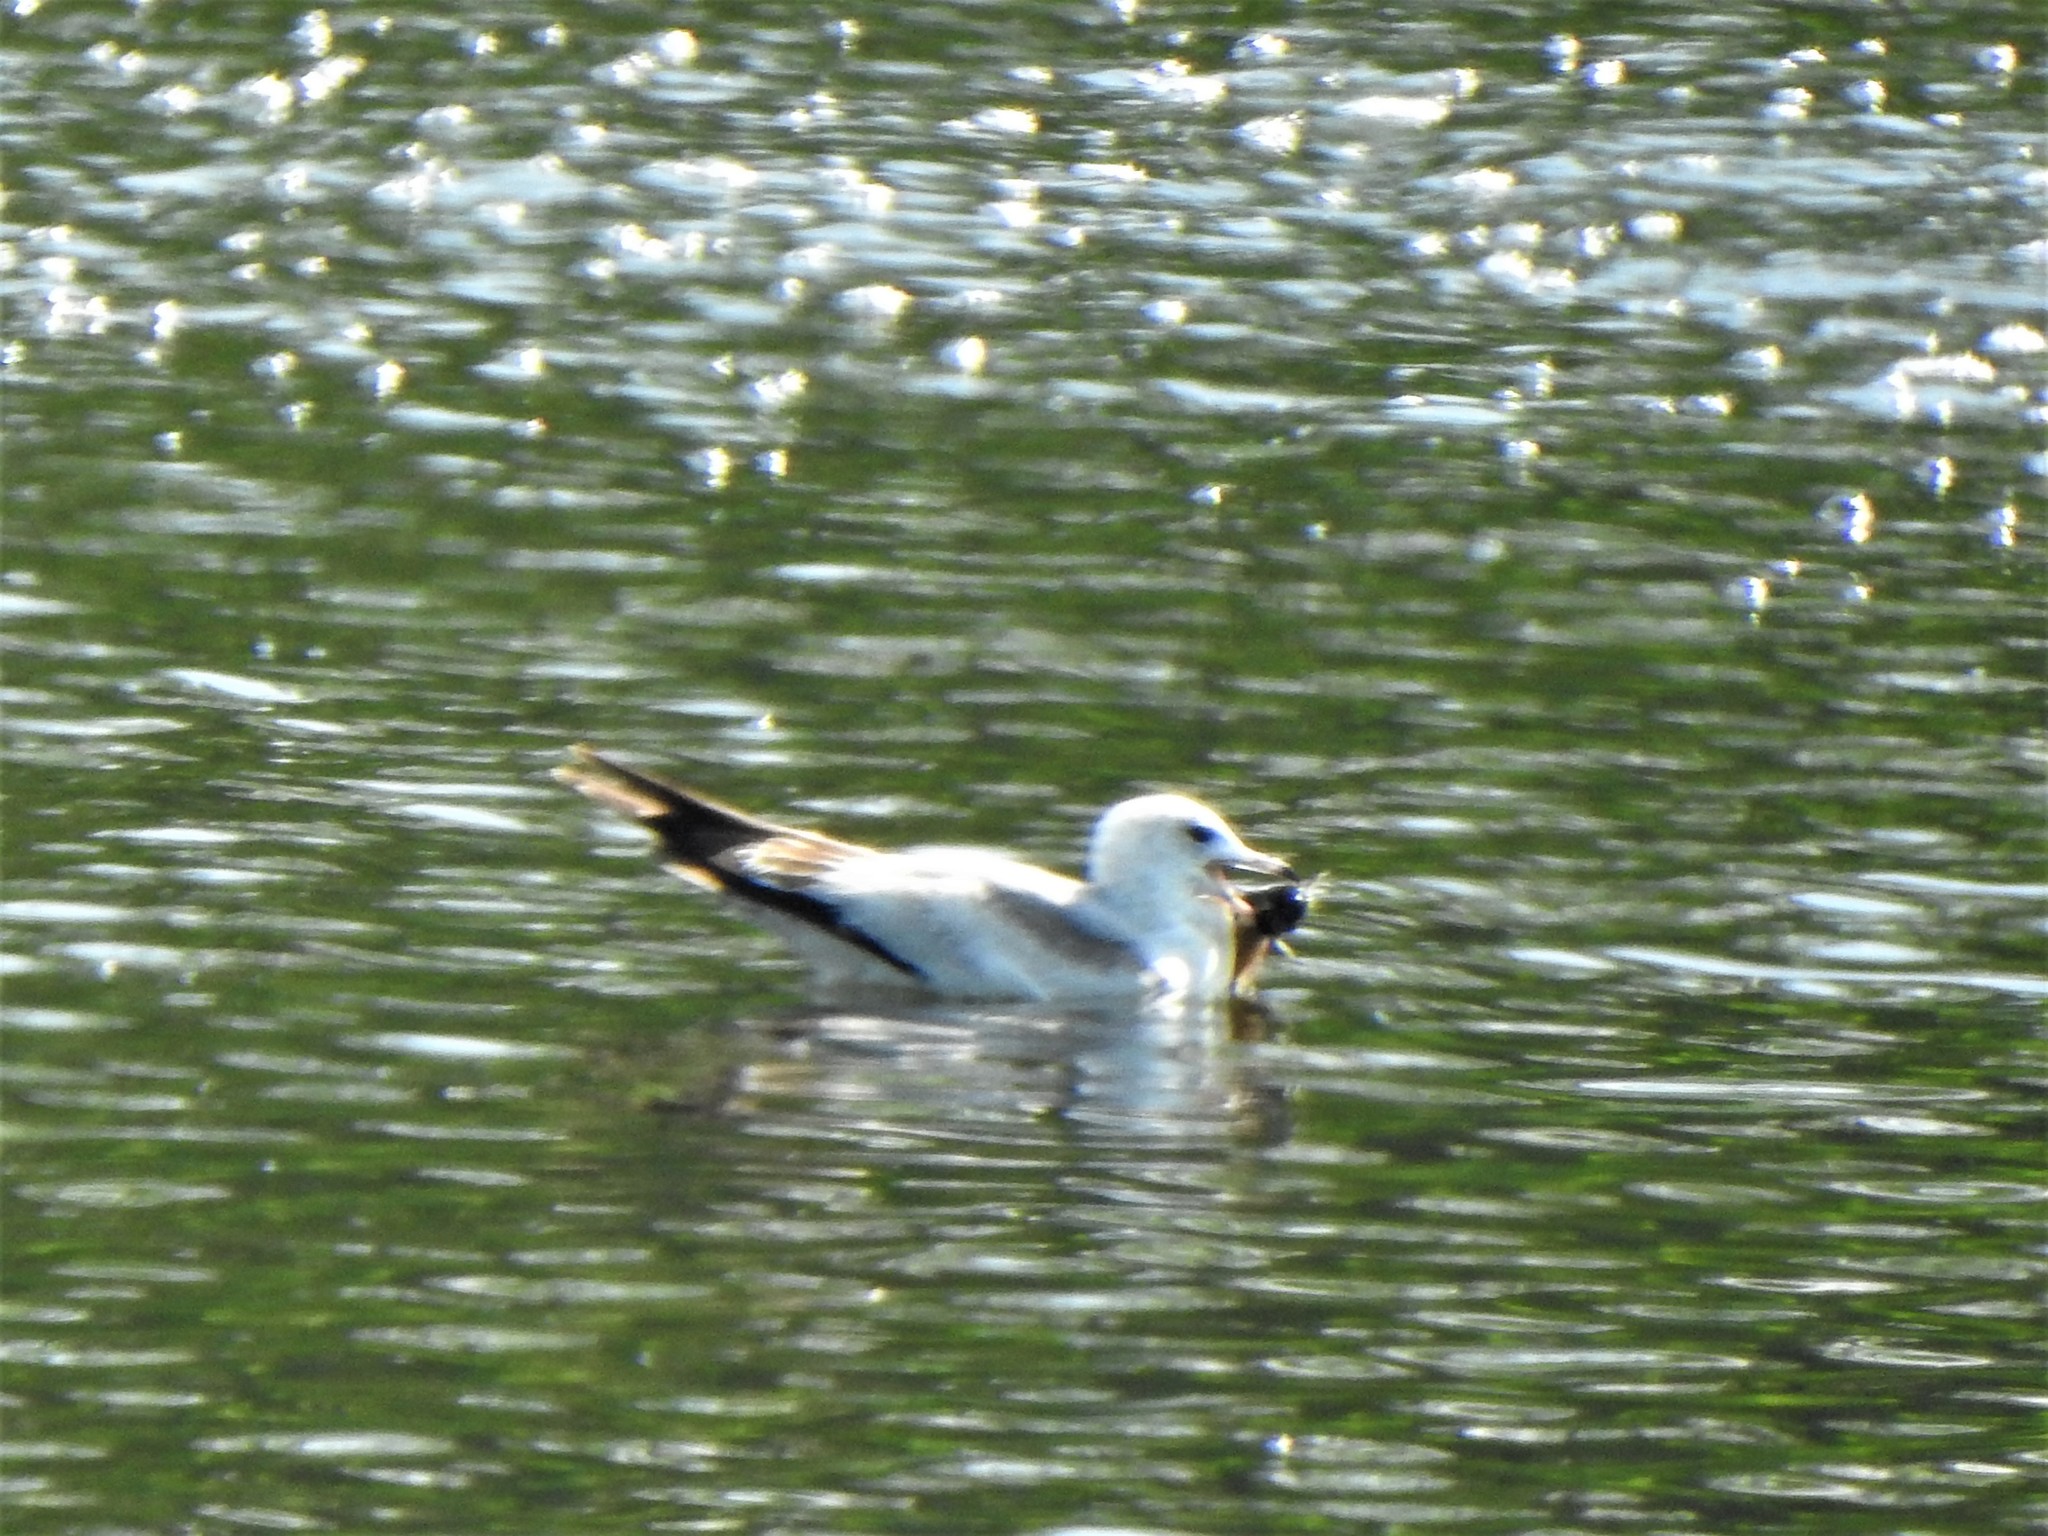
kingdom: Animalia
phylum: Chordata
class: Aves
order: Charadriiformes
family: Laridae
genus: Larus
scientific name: Larus delawarensis
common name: Ring-billed gull
